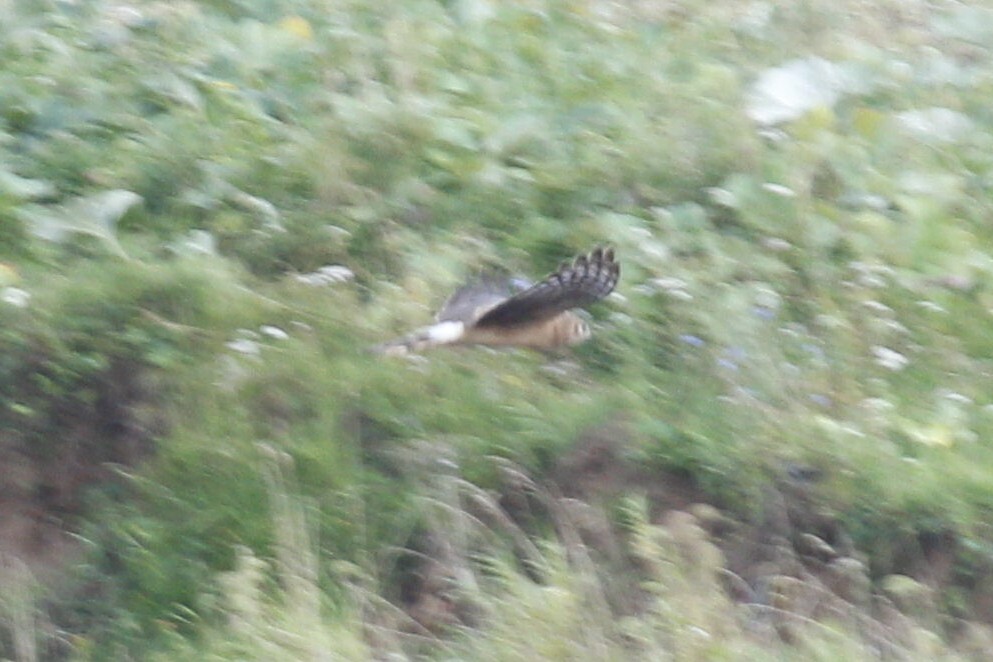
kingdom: Animalia
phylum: Chordata
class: Aves
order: Accipitriformes
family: Accipitridae
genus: Circus
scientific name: Circus cyaneus
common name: Hen harrier
